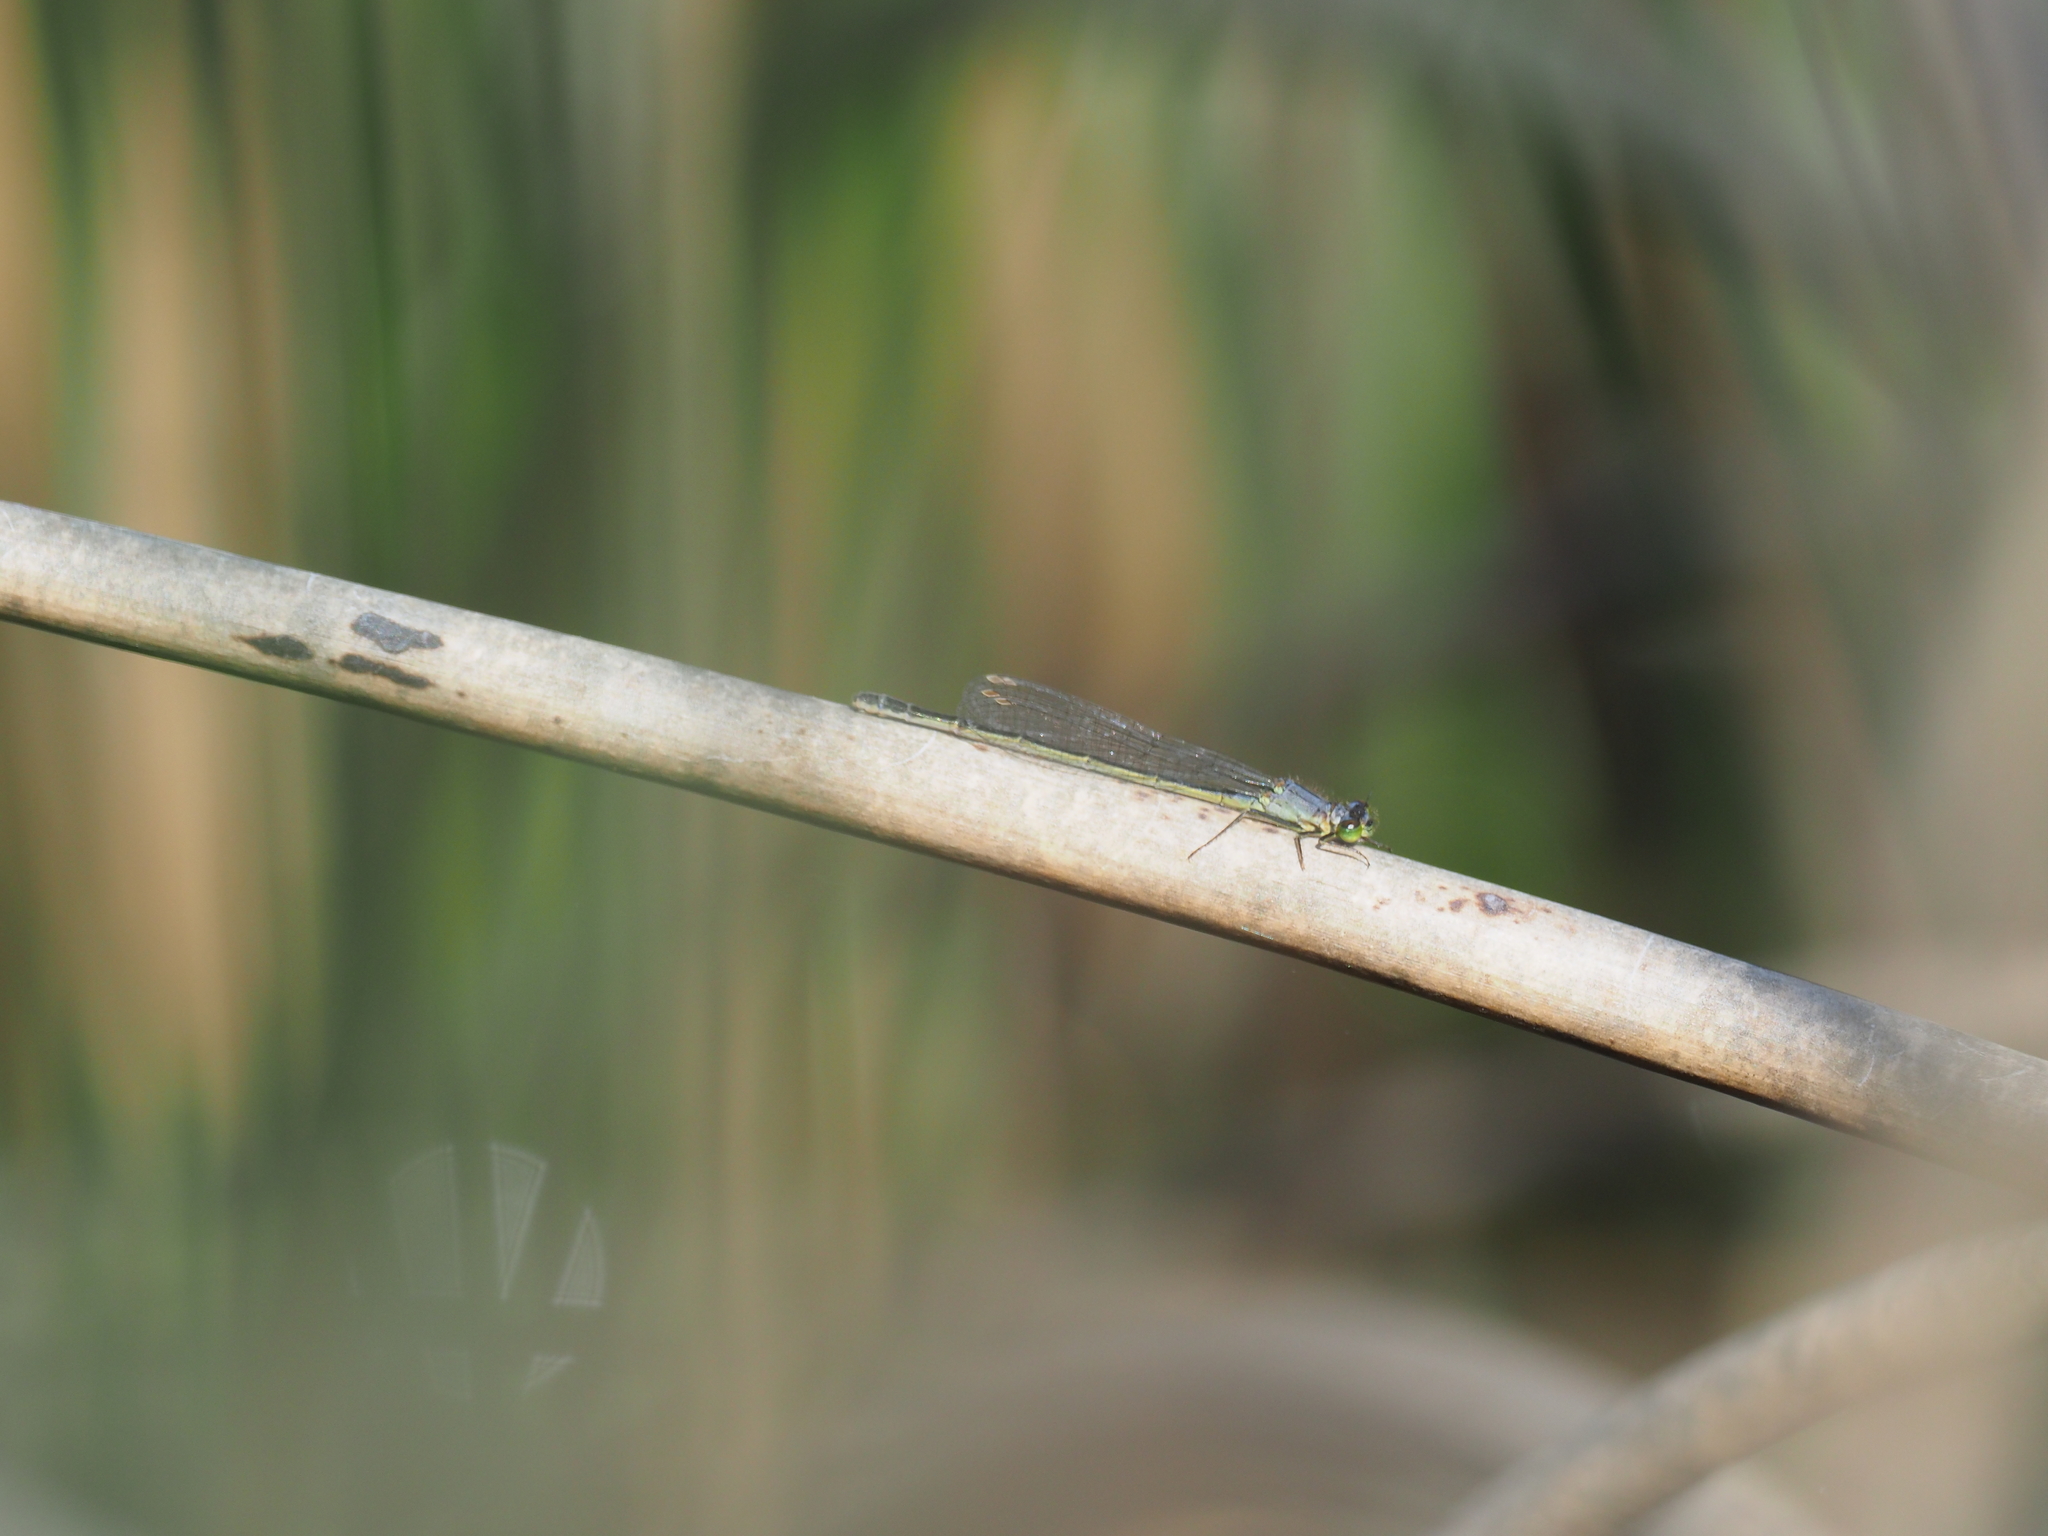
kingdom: Animalia
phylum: Arthropoda
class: Insecta
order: Odonata
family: Coenagrionidae
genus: Ischnura
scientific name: Ischnura cervula
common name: Pacific forktail
